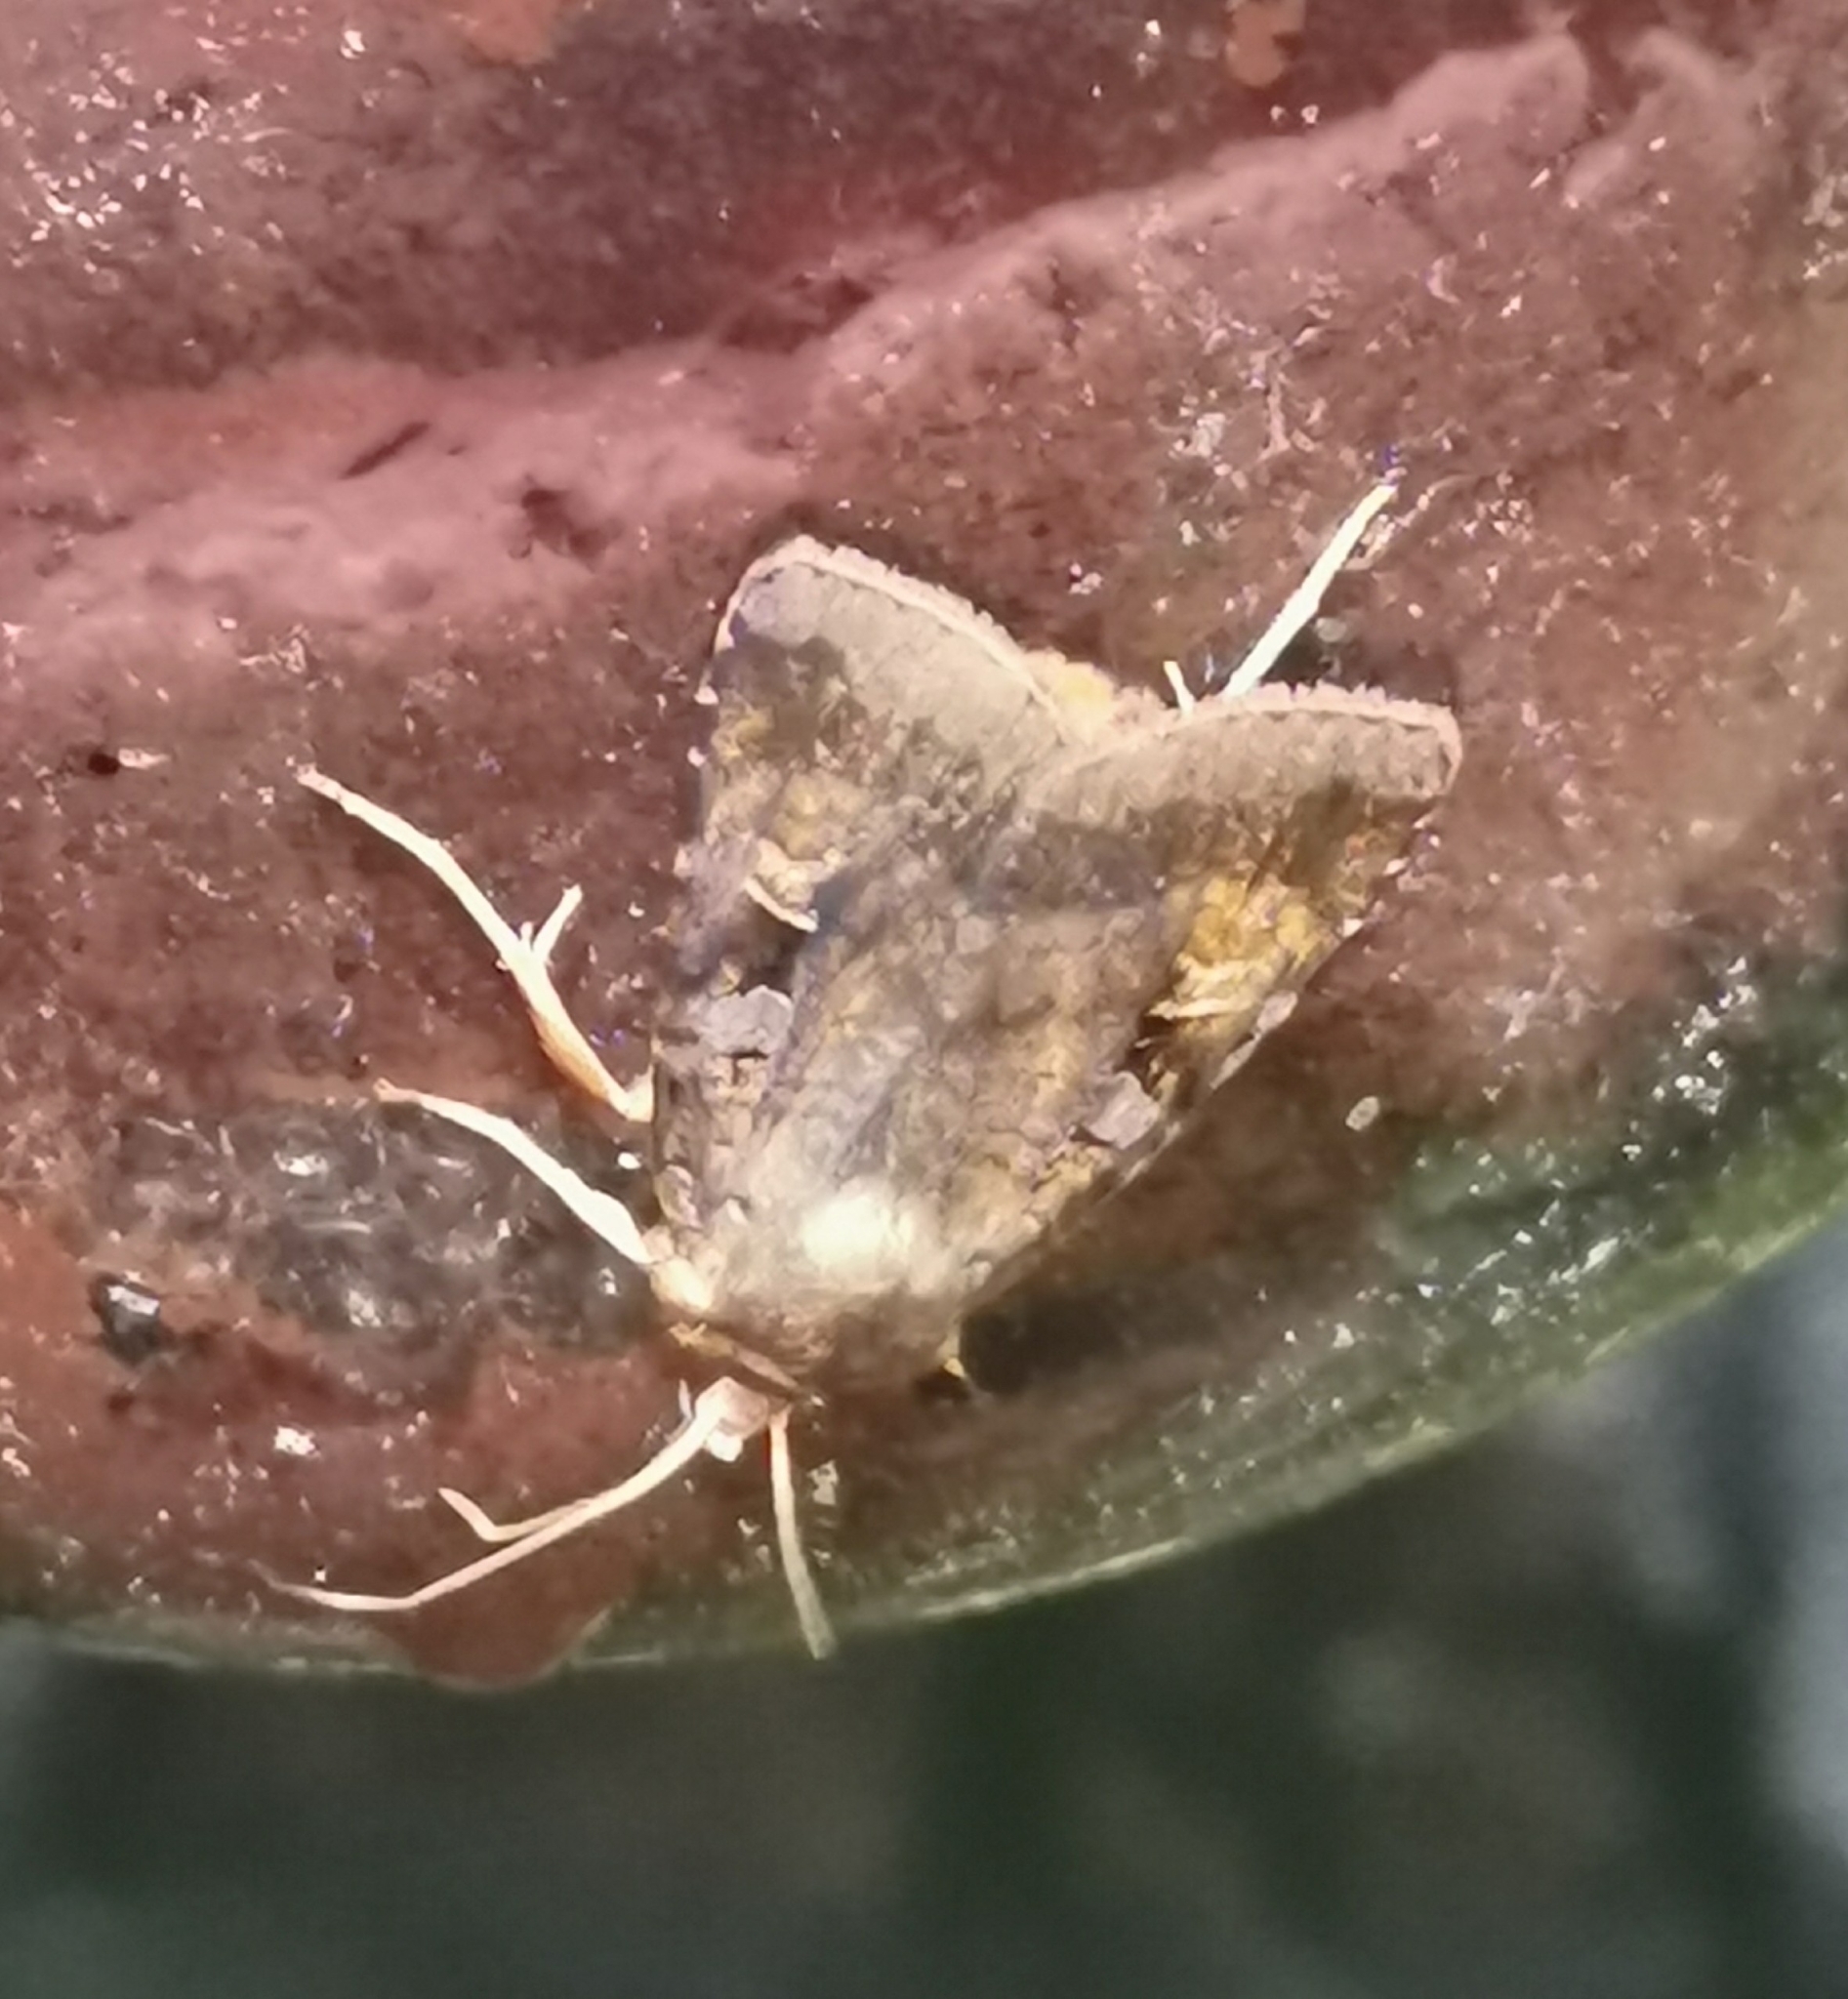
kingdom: Animalia
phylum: Arthropoda
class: Insecta
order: Lepidoptera
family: Noctuidae
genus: Diarsia
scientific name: Diarsia mendica
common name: Ingrailed clay
